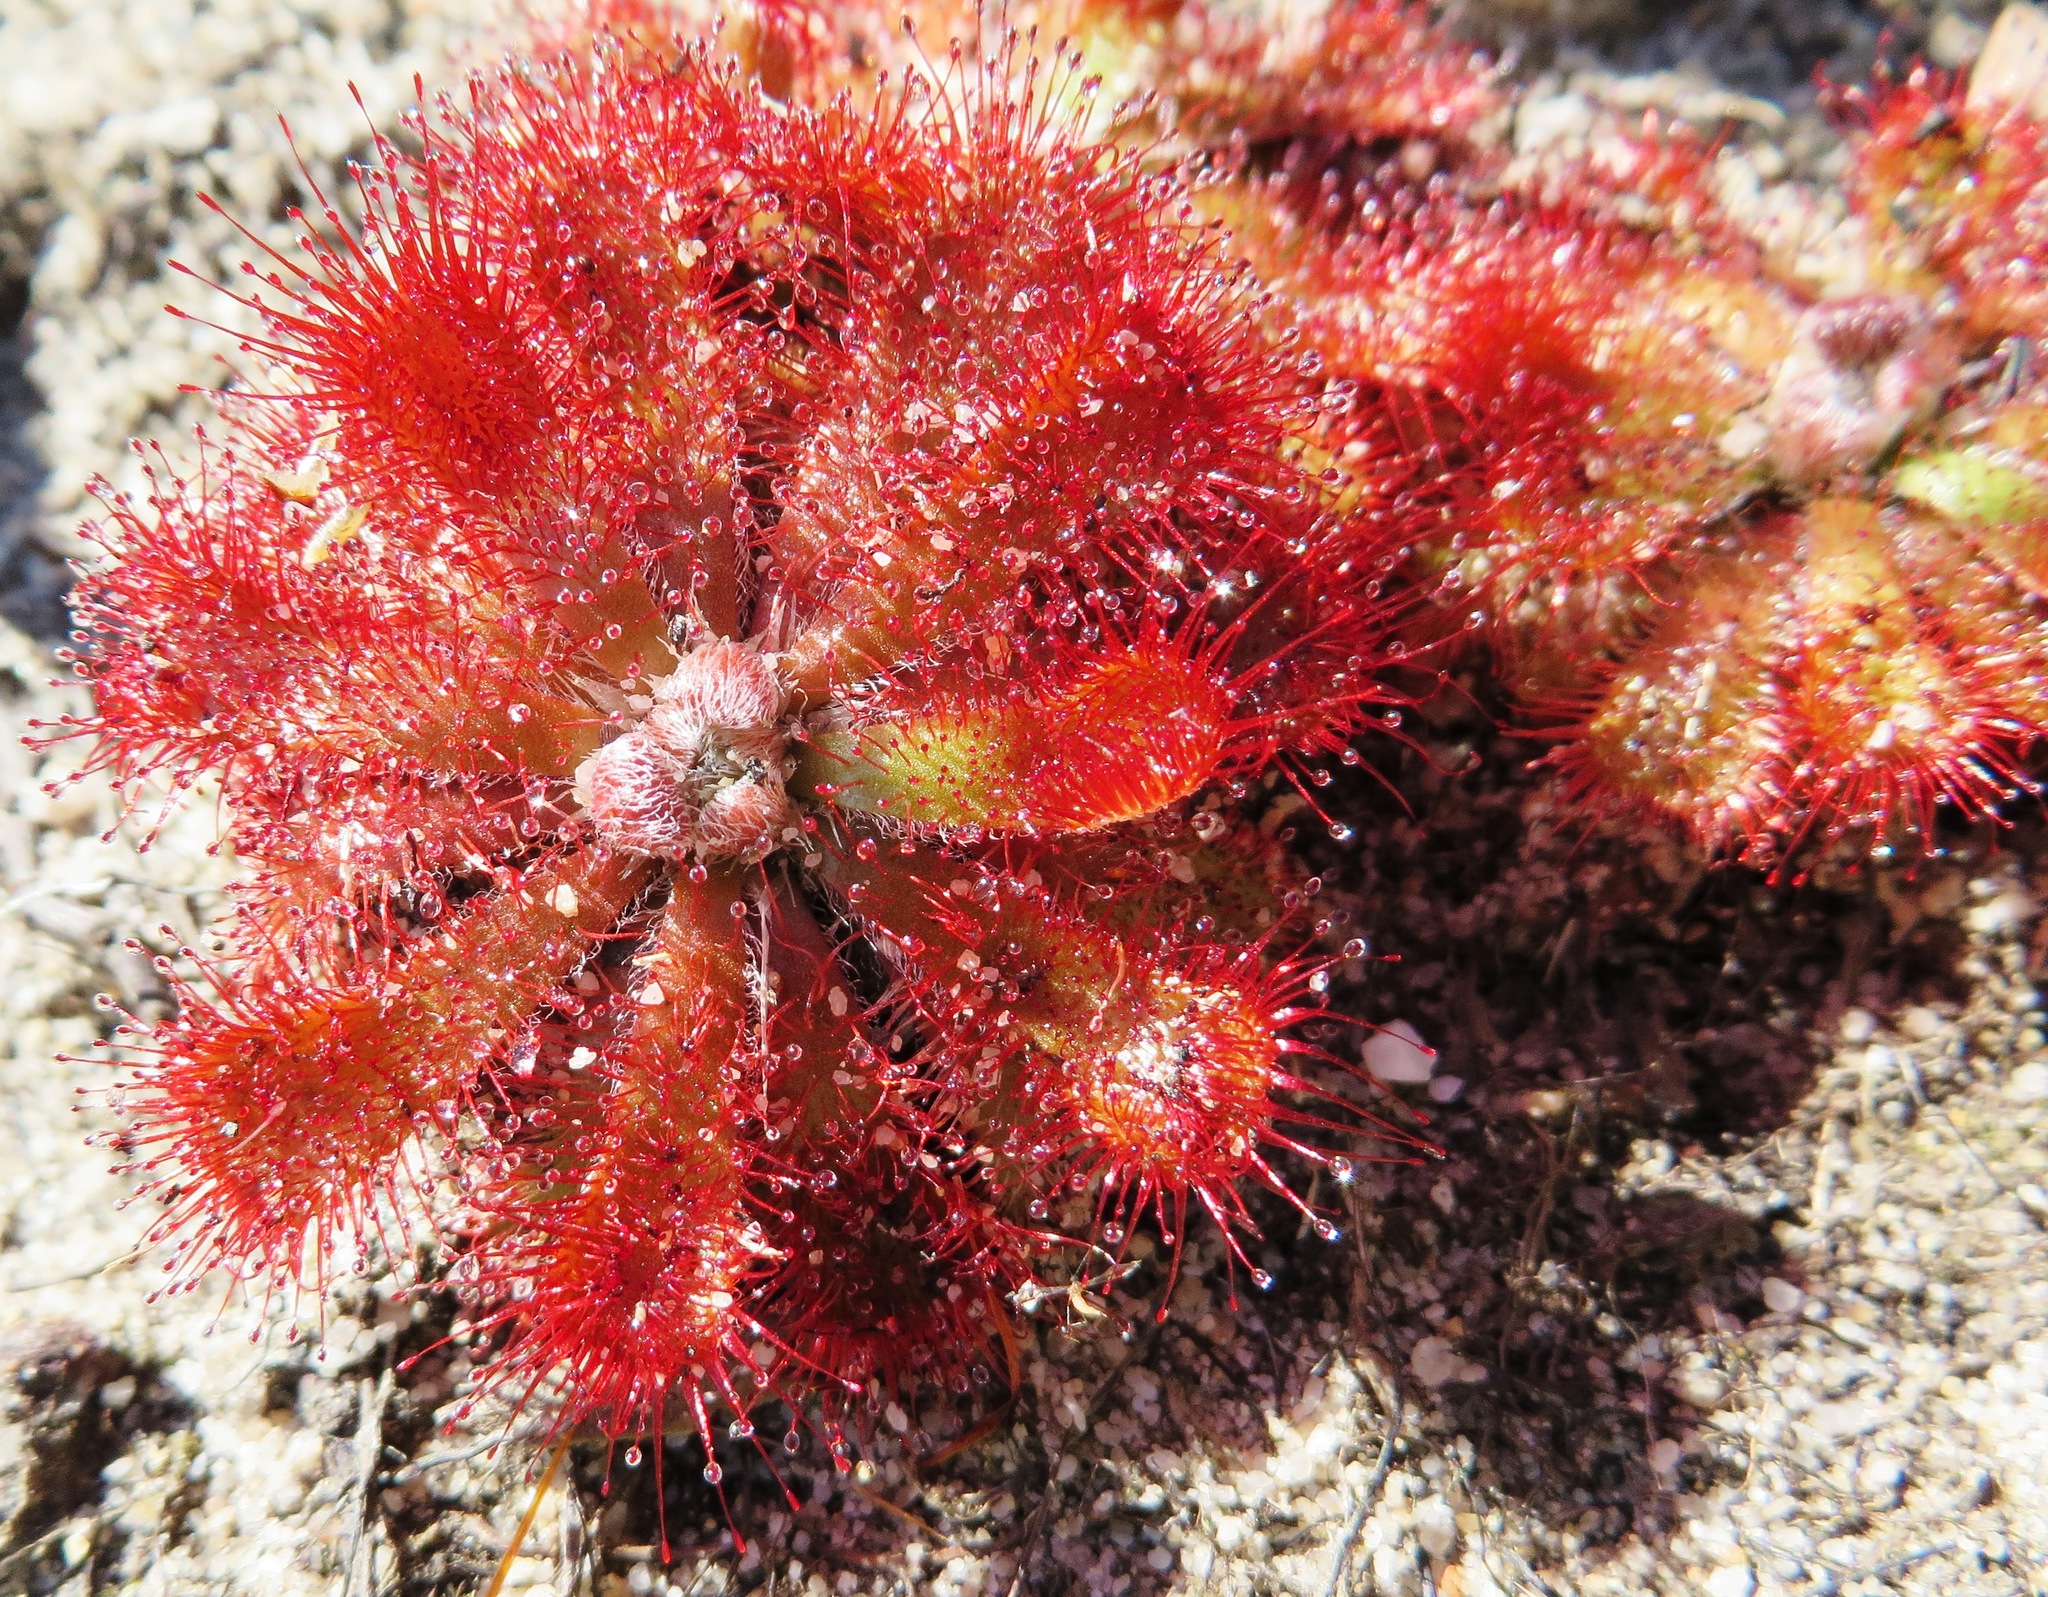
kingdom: Plantae
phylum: Tracheophyta
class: Magnoliopsida
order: Caryophyllales
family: Droseraceae
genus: Drosera
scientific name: Drosera aliciae
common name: Alice sundew
